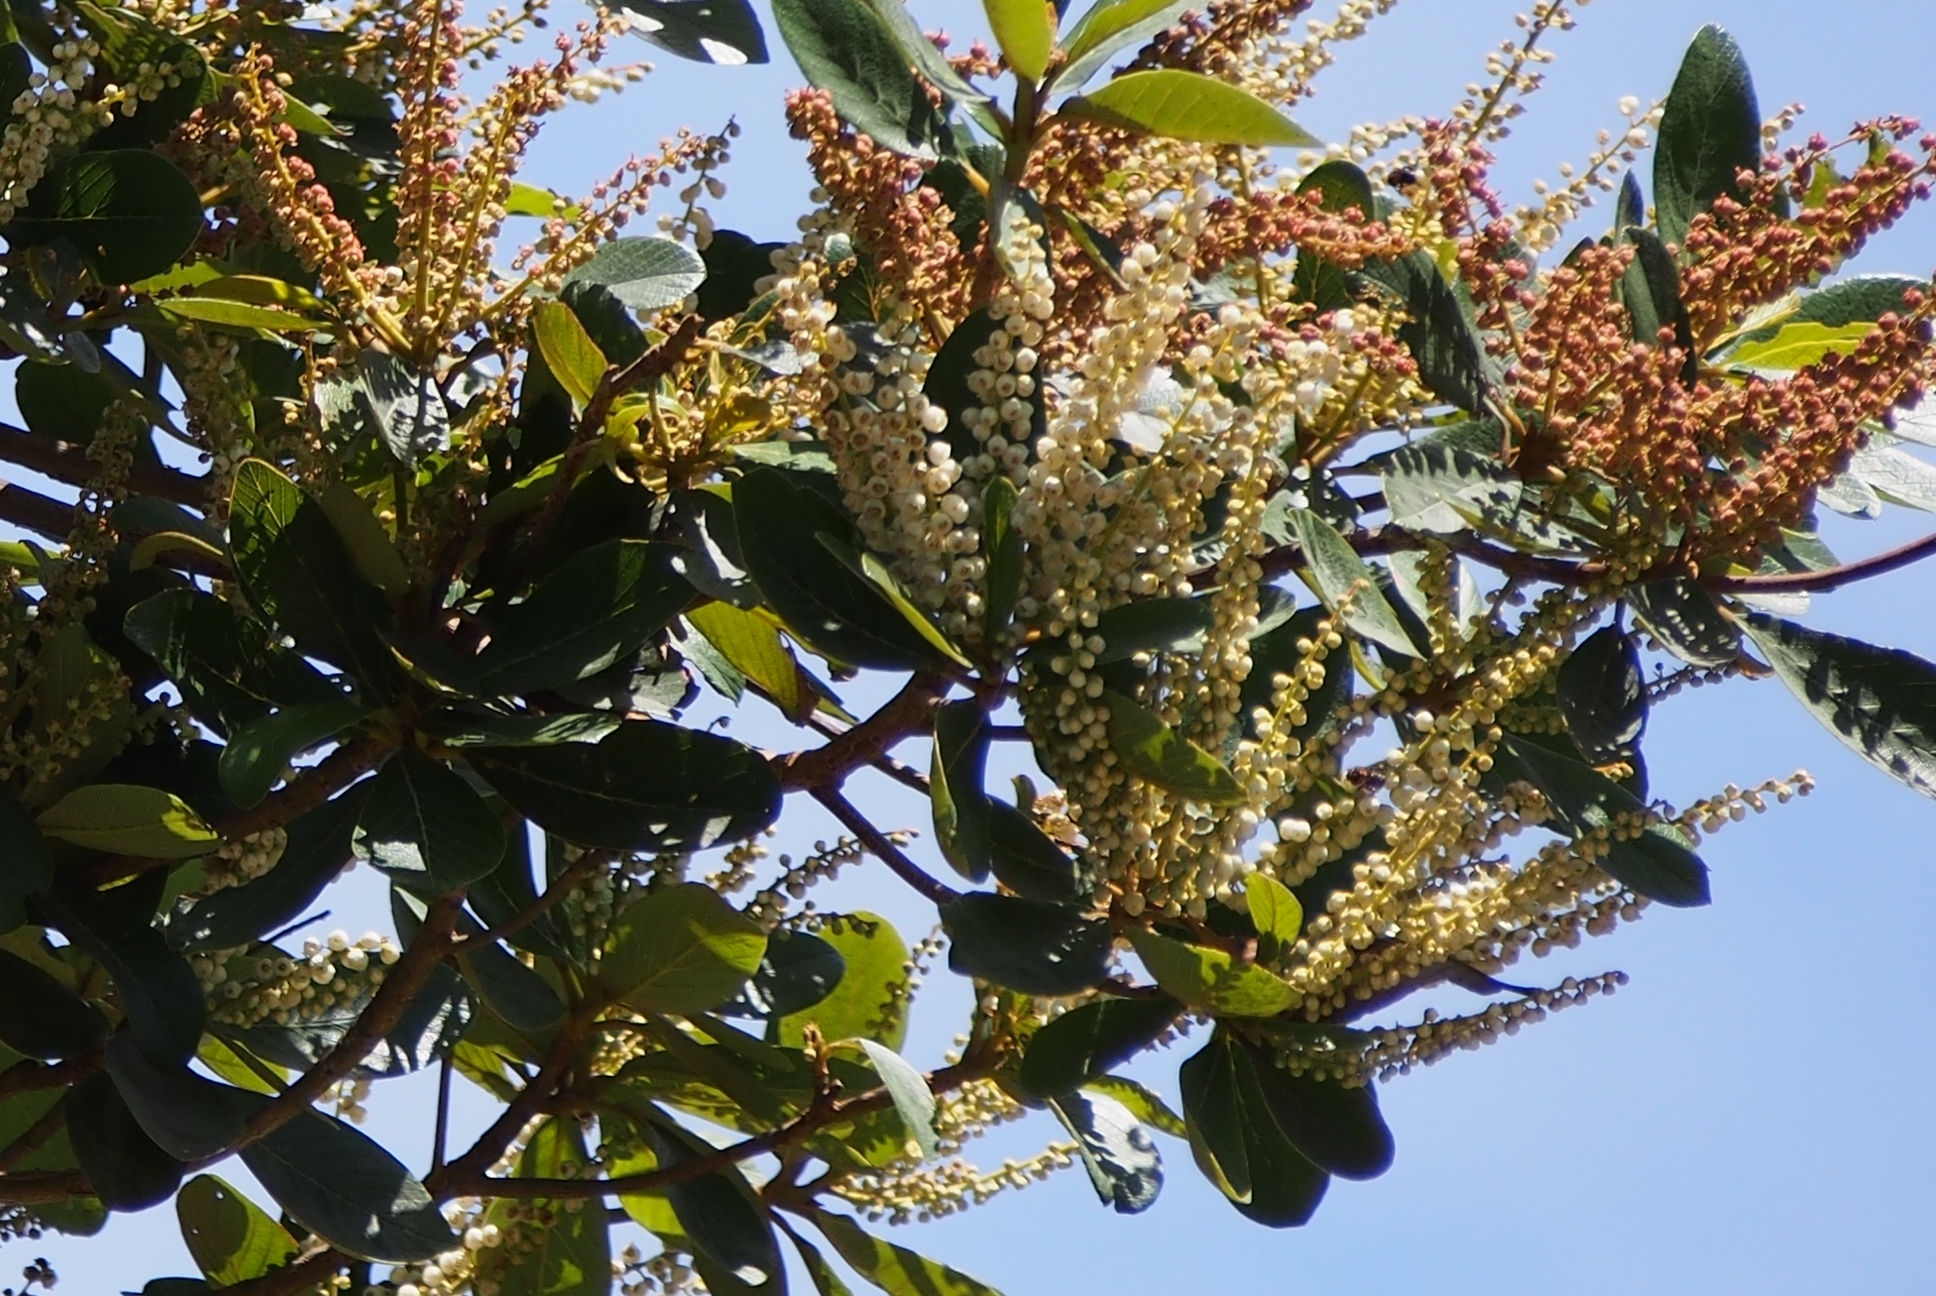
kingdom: Plantae
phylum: Tracheophyta
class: Magnoliopsida
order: Ericales
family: Clethraceae
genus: Clethra
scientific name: Clethra mexicana
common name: Nance macho
